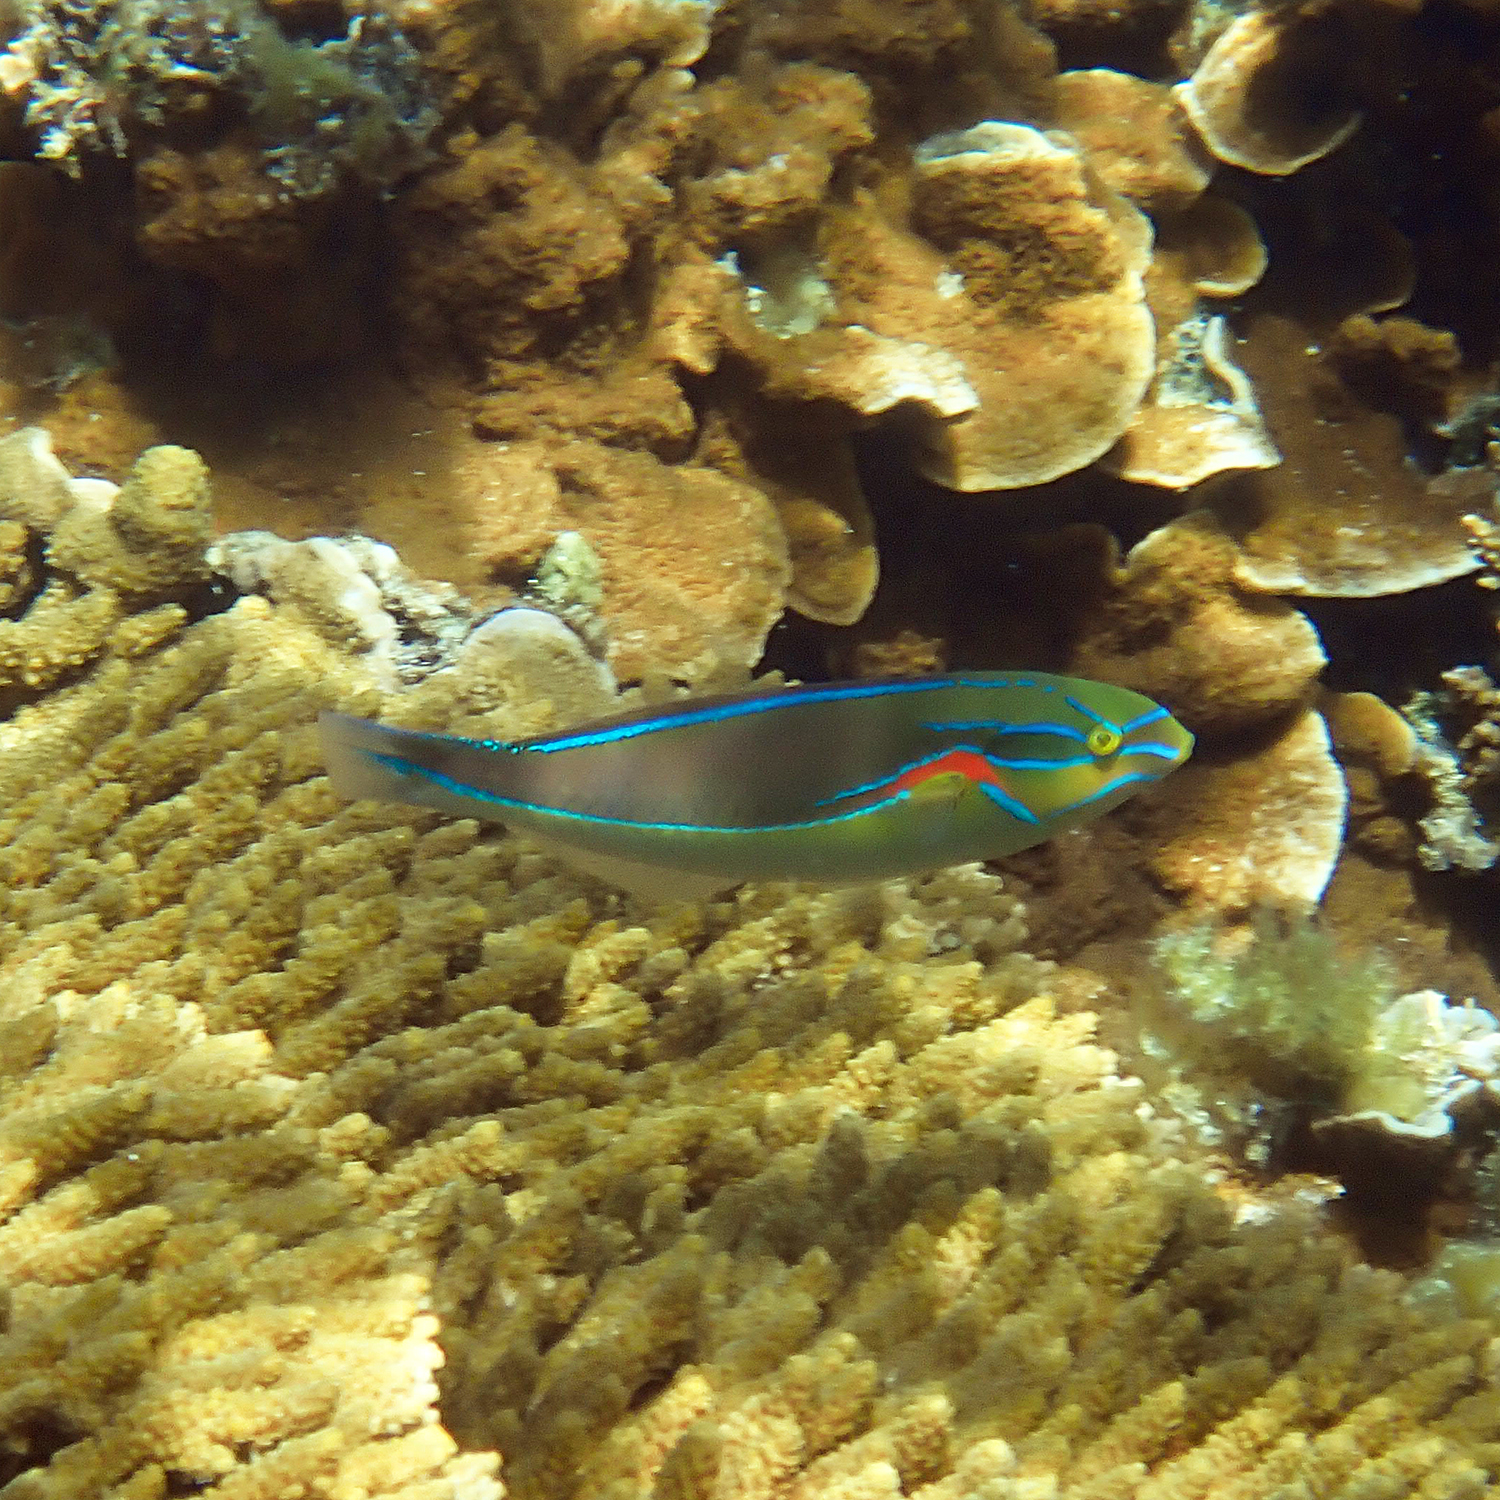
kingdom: Animalia
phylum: Chordata
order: Perciformes
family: Labridae
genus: Stethojulis
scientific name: Stethojulis bandanensis
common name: Red shoulder wrasse
